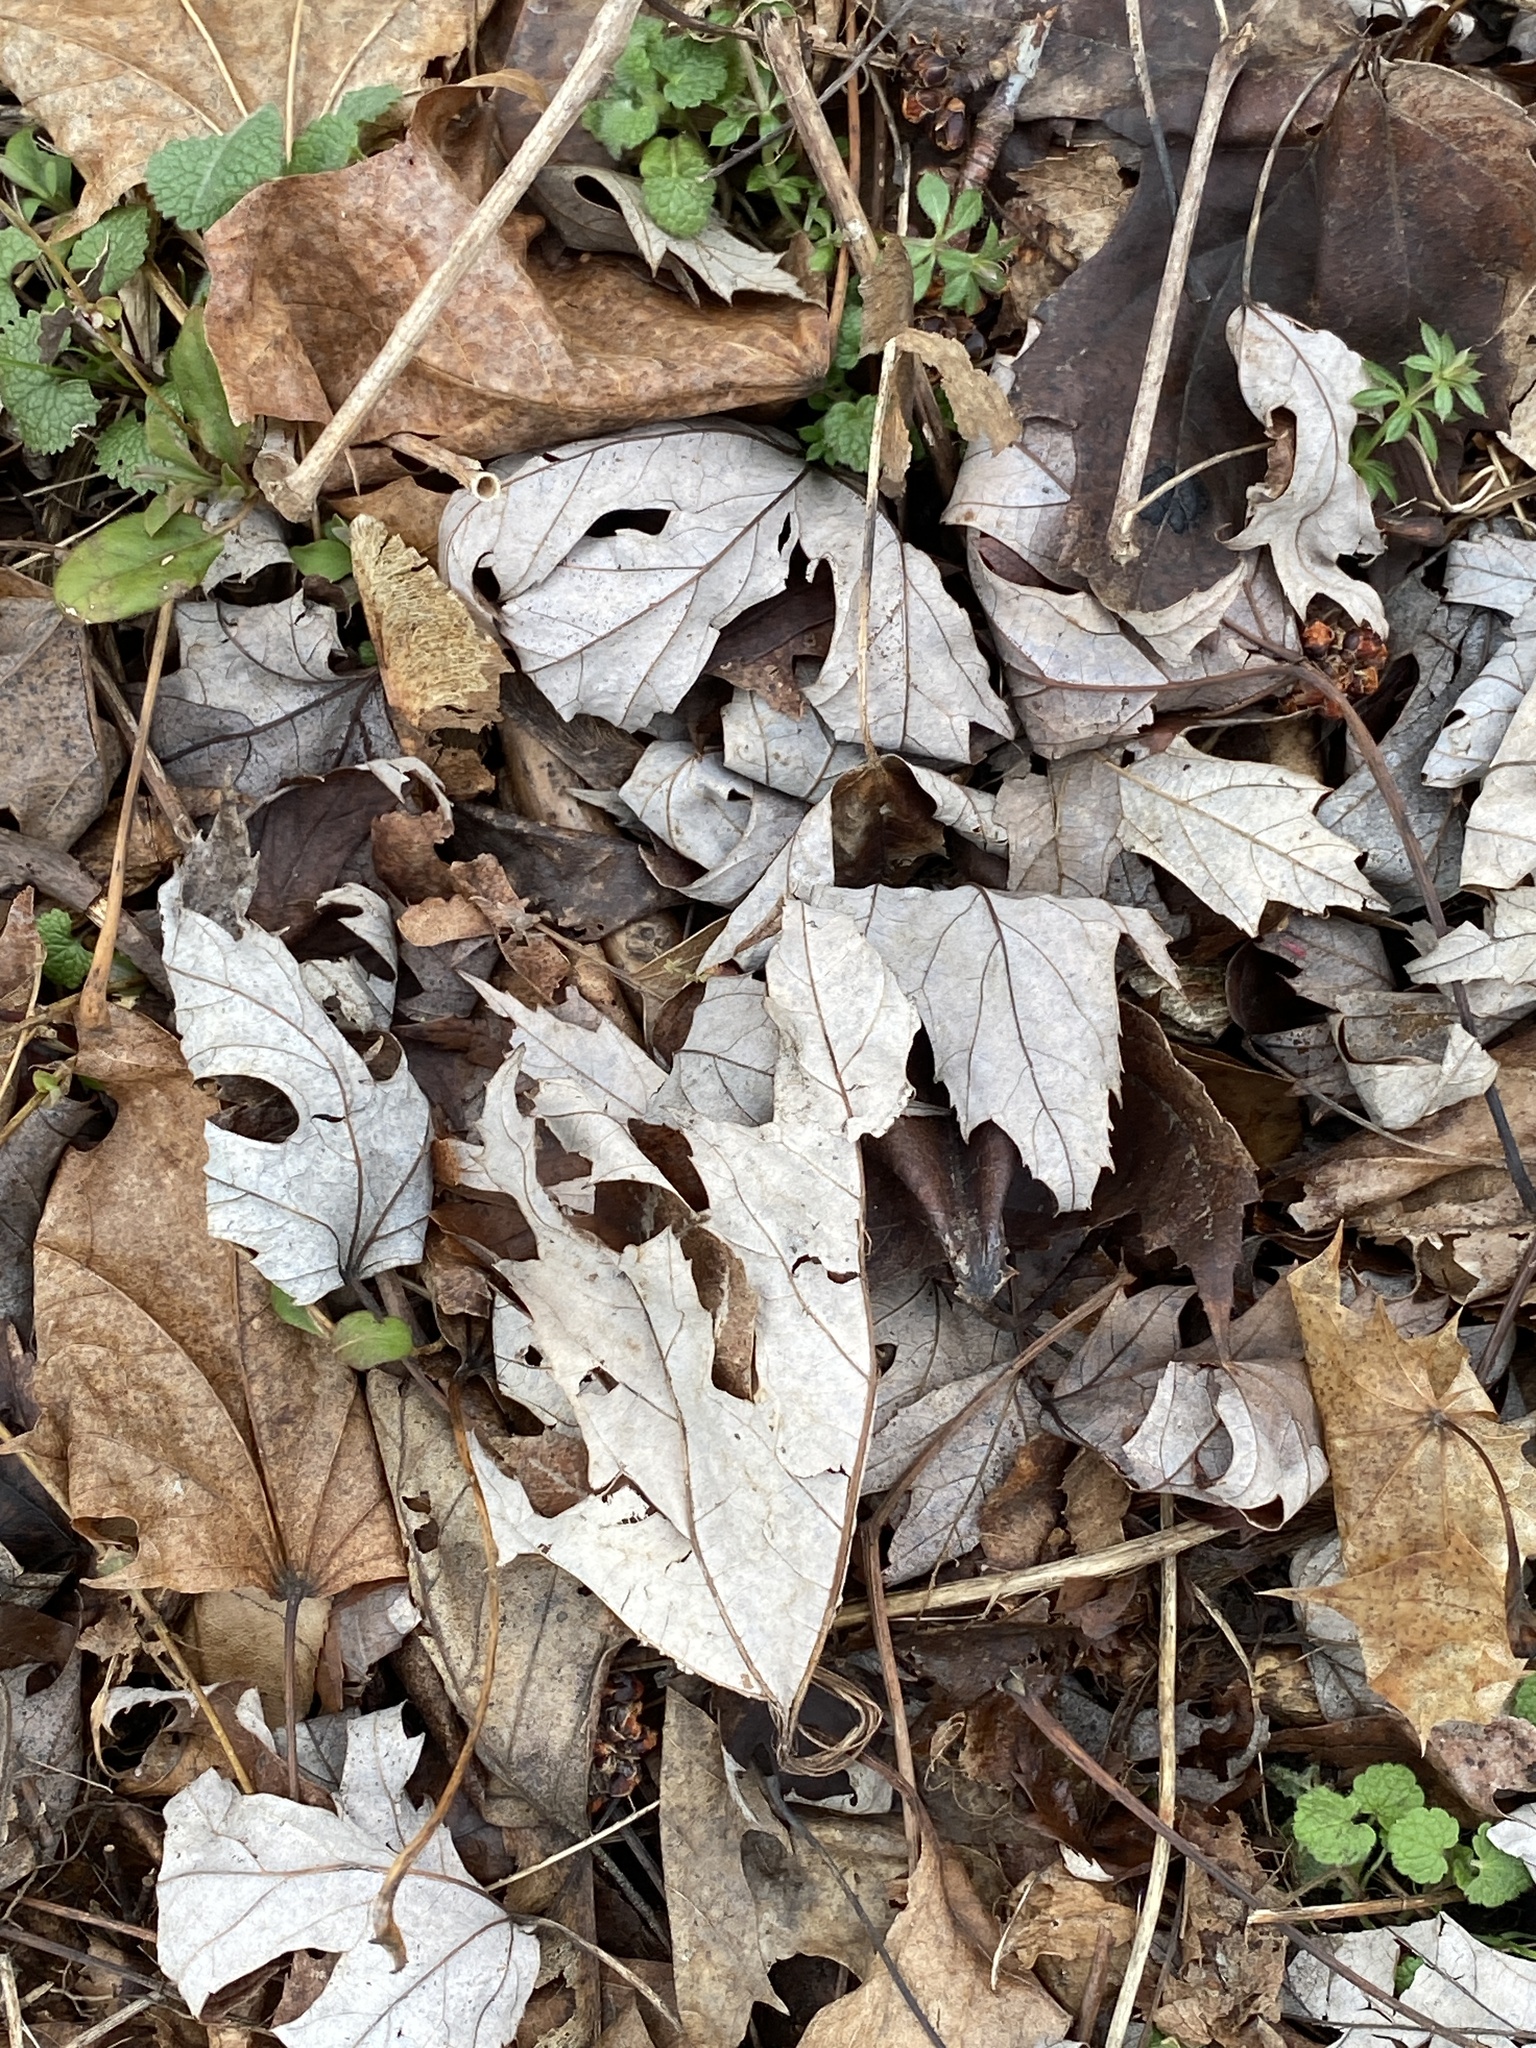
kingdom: Plantae
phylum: Tracheophyta
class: Magnoliopsida
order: Sapindales
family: Sapindaceae
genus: Acer
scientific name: Acer saccharinum
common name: Silver maple
